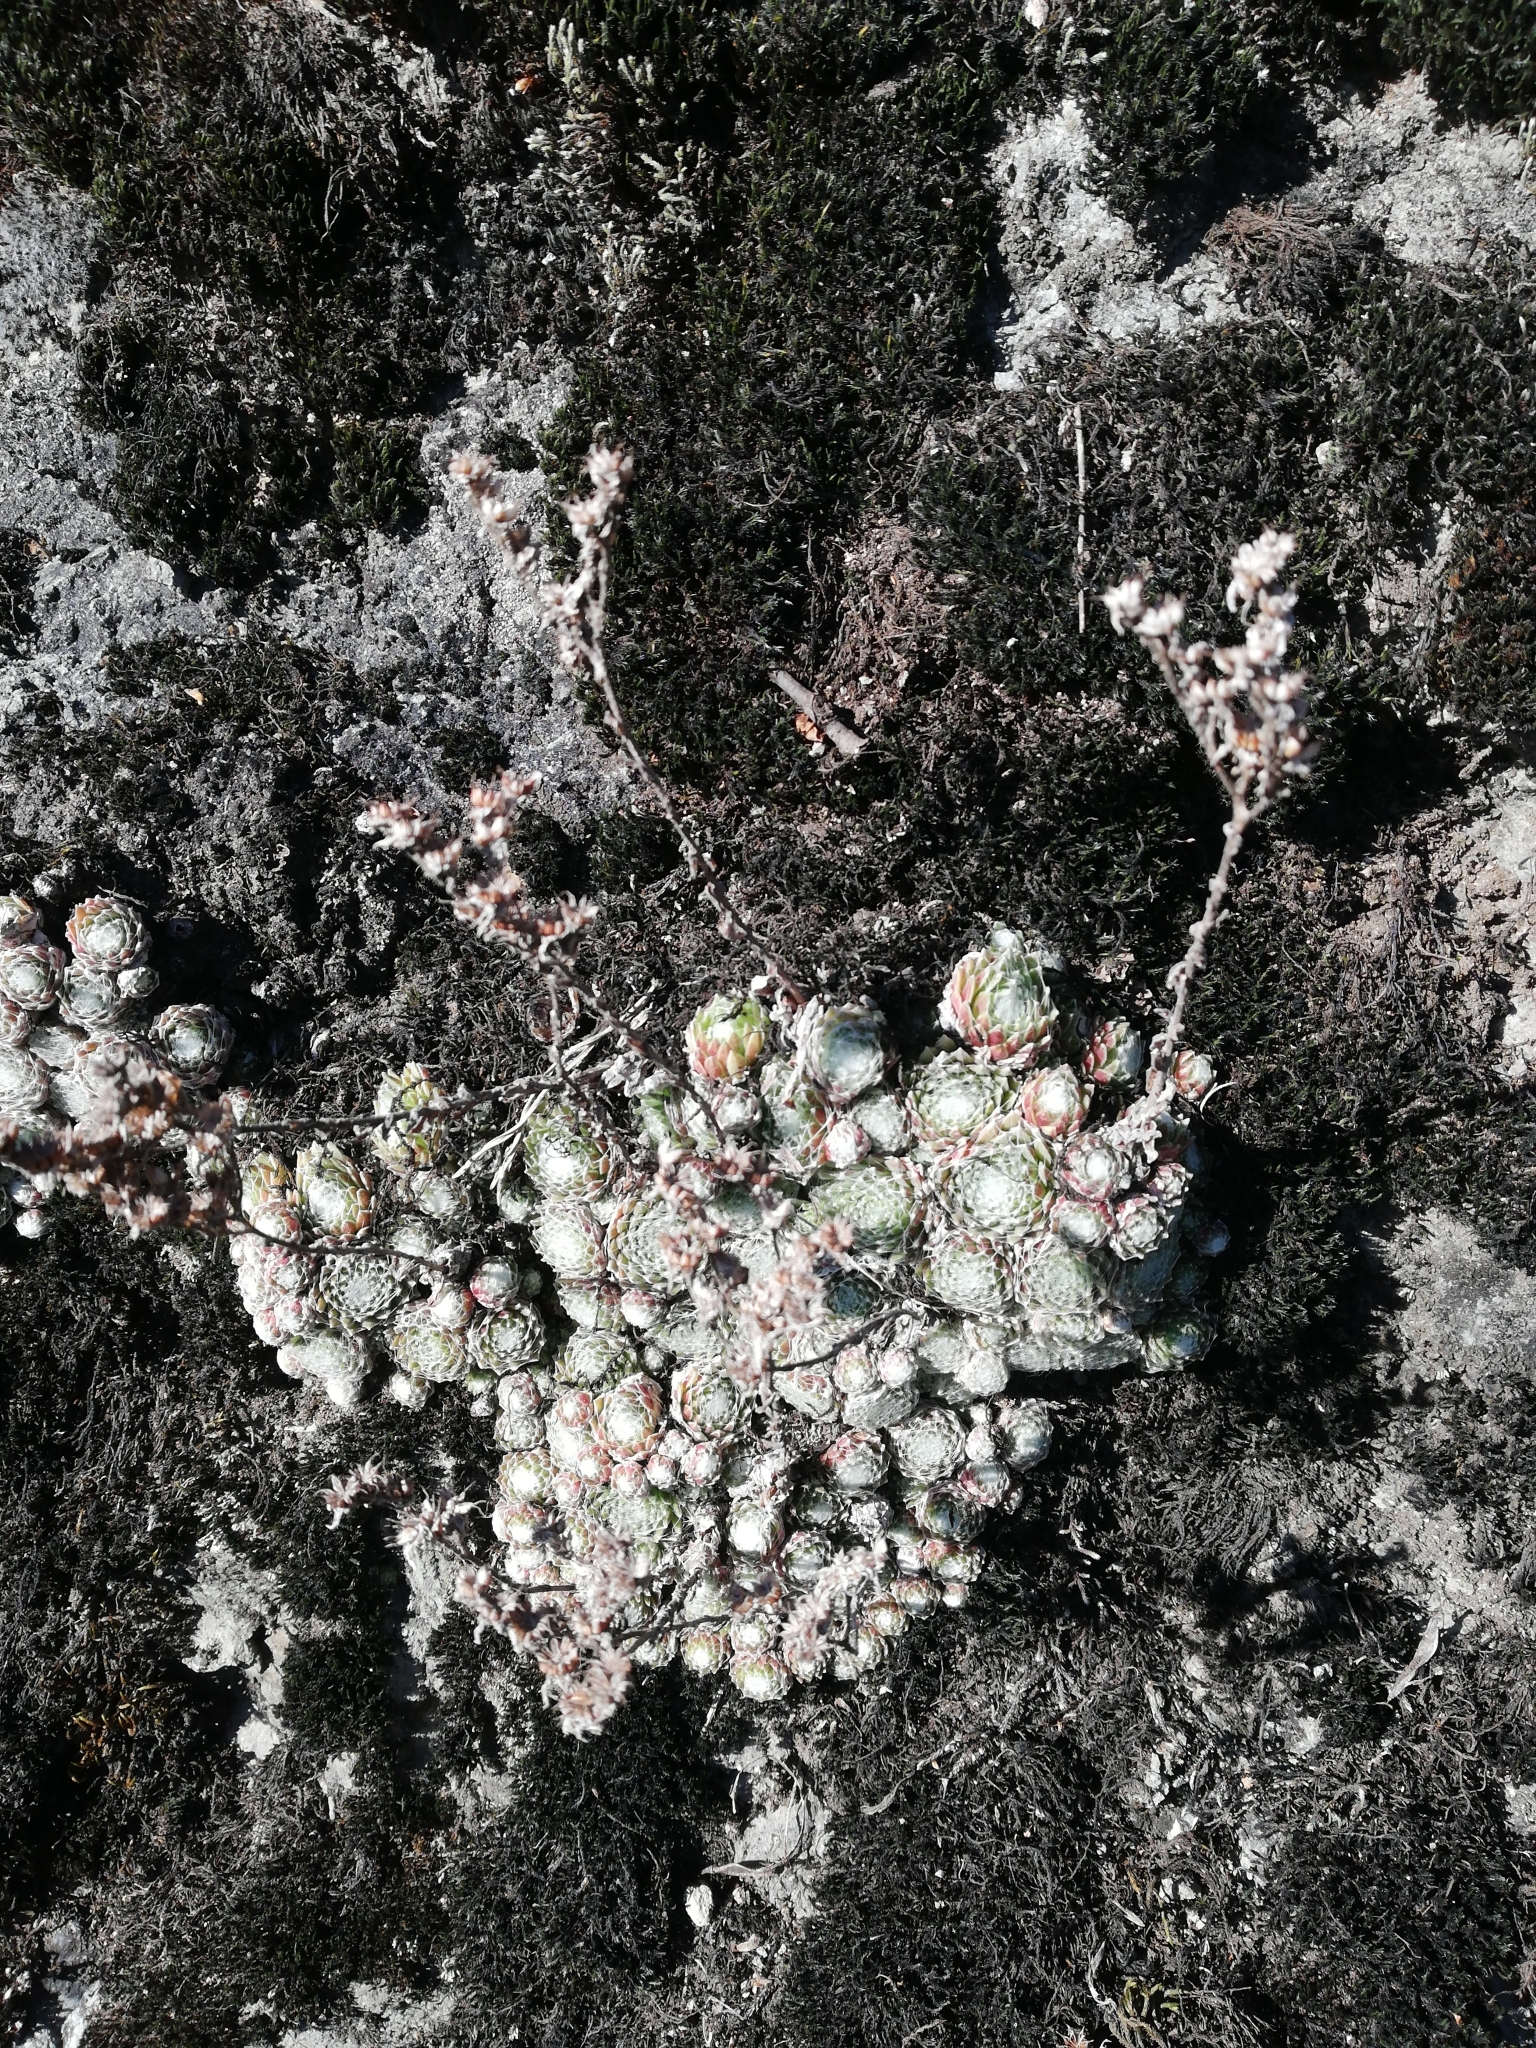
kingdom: Plantae
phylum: Tracheophyta
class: Magnoliopsida
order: Saxifragales
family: Crassulaceae
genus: Sempervivum
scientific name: Sempervivum arachnoideum
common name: Cobweb house-leek
